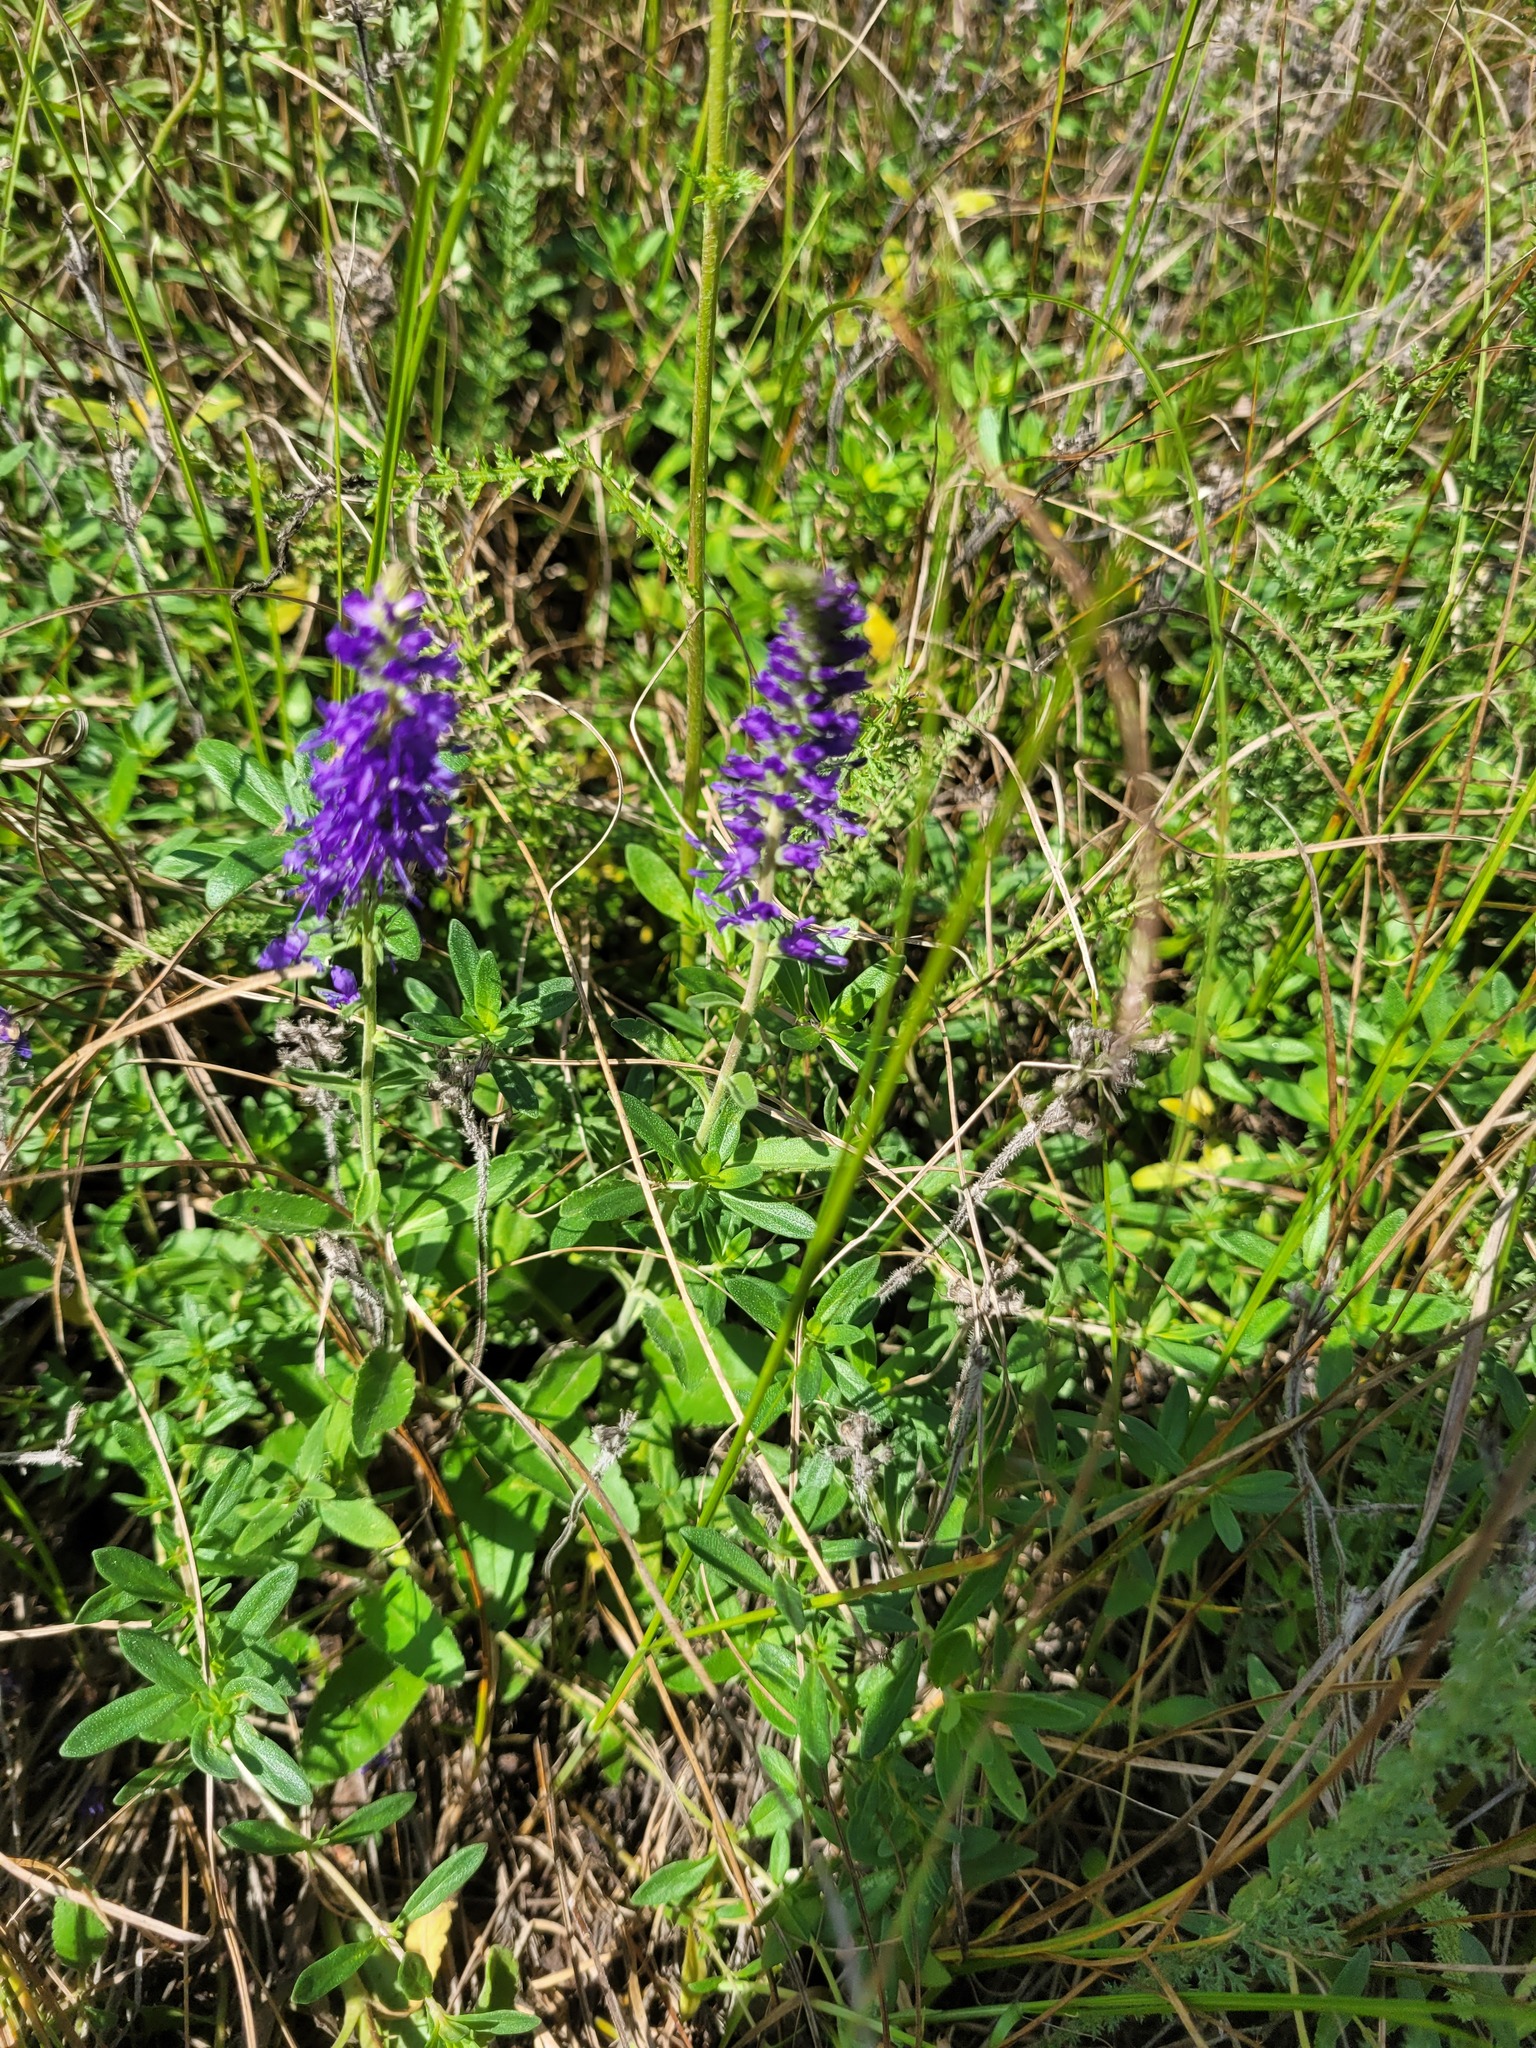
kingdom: Plantae
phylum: Tracheophyta
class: Magnoliopsida
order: Lamiales
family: Plantaginaceae
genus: Veronica
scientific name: Veronica spicata
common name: Spiked speedwell
